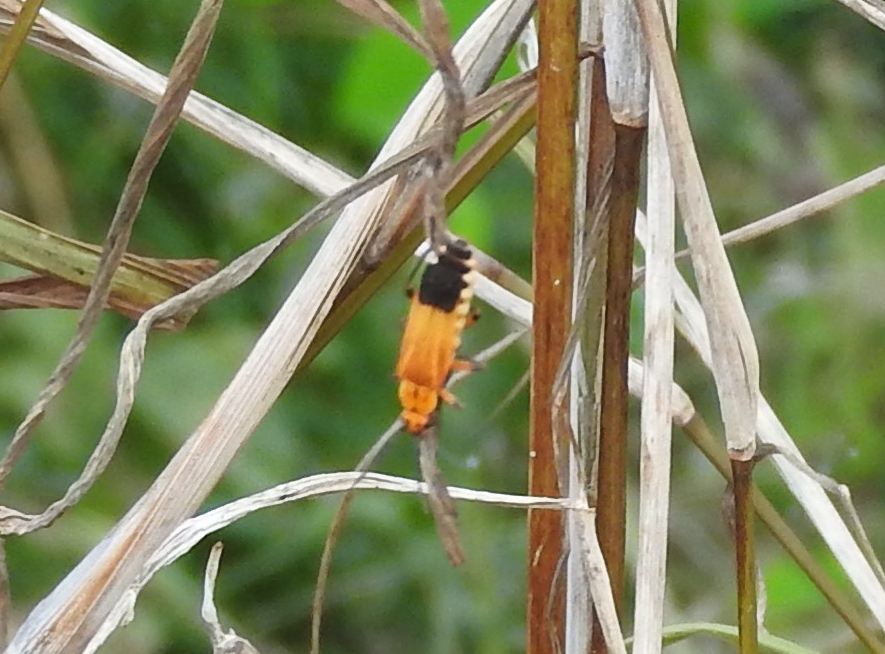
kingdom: Animalia
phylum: Arthropoda
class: Insecta
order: Coleoptera
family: Cantharidae
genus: Daiphron
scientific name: Daiphron proteum
